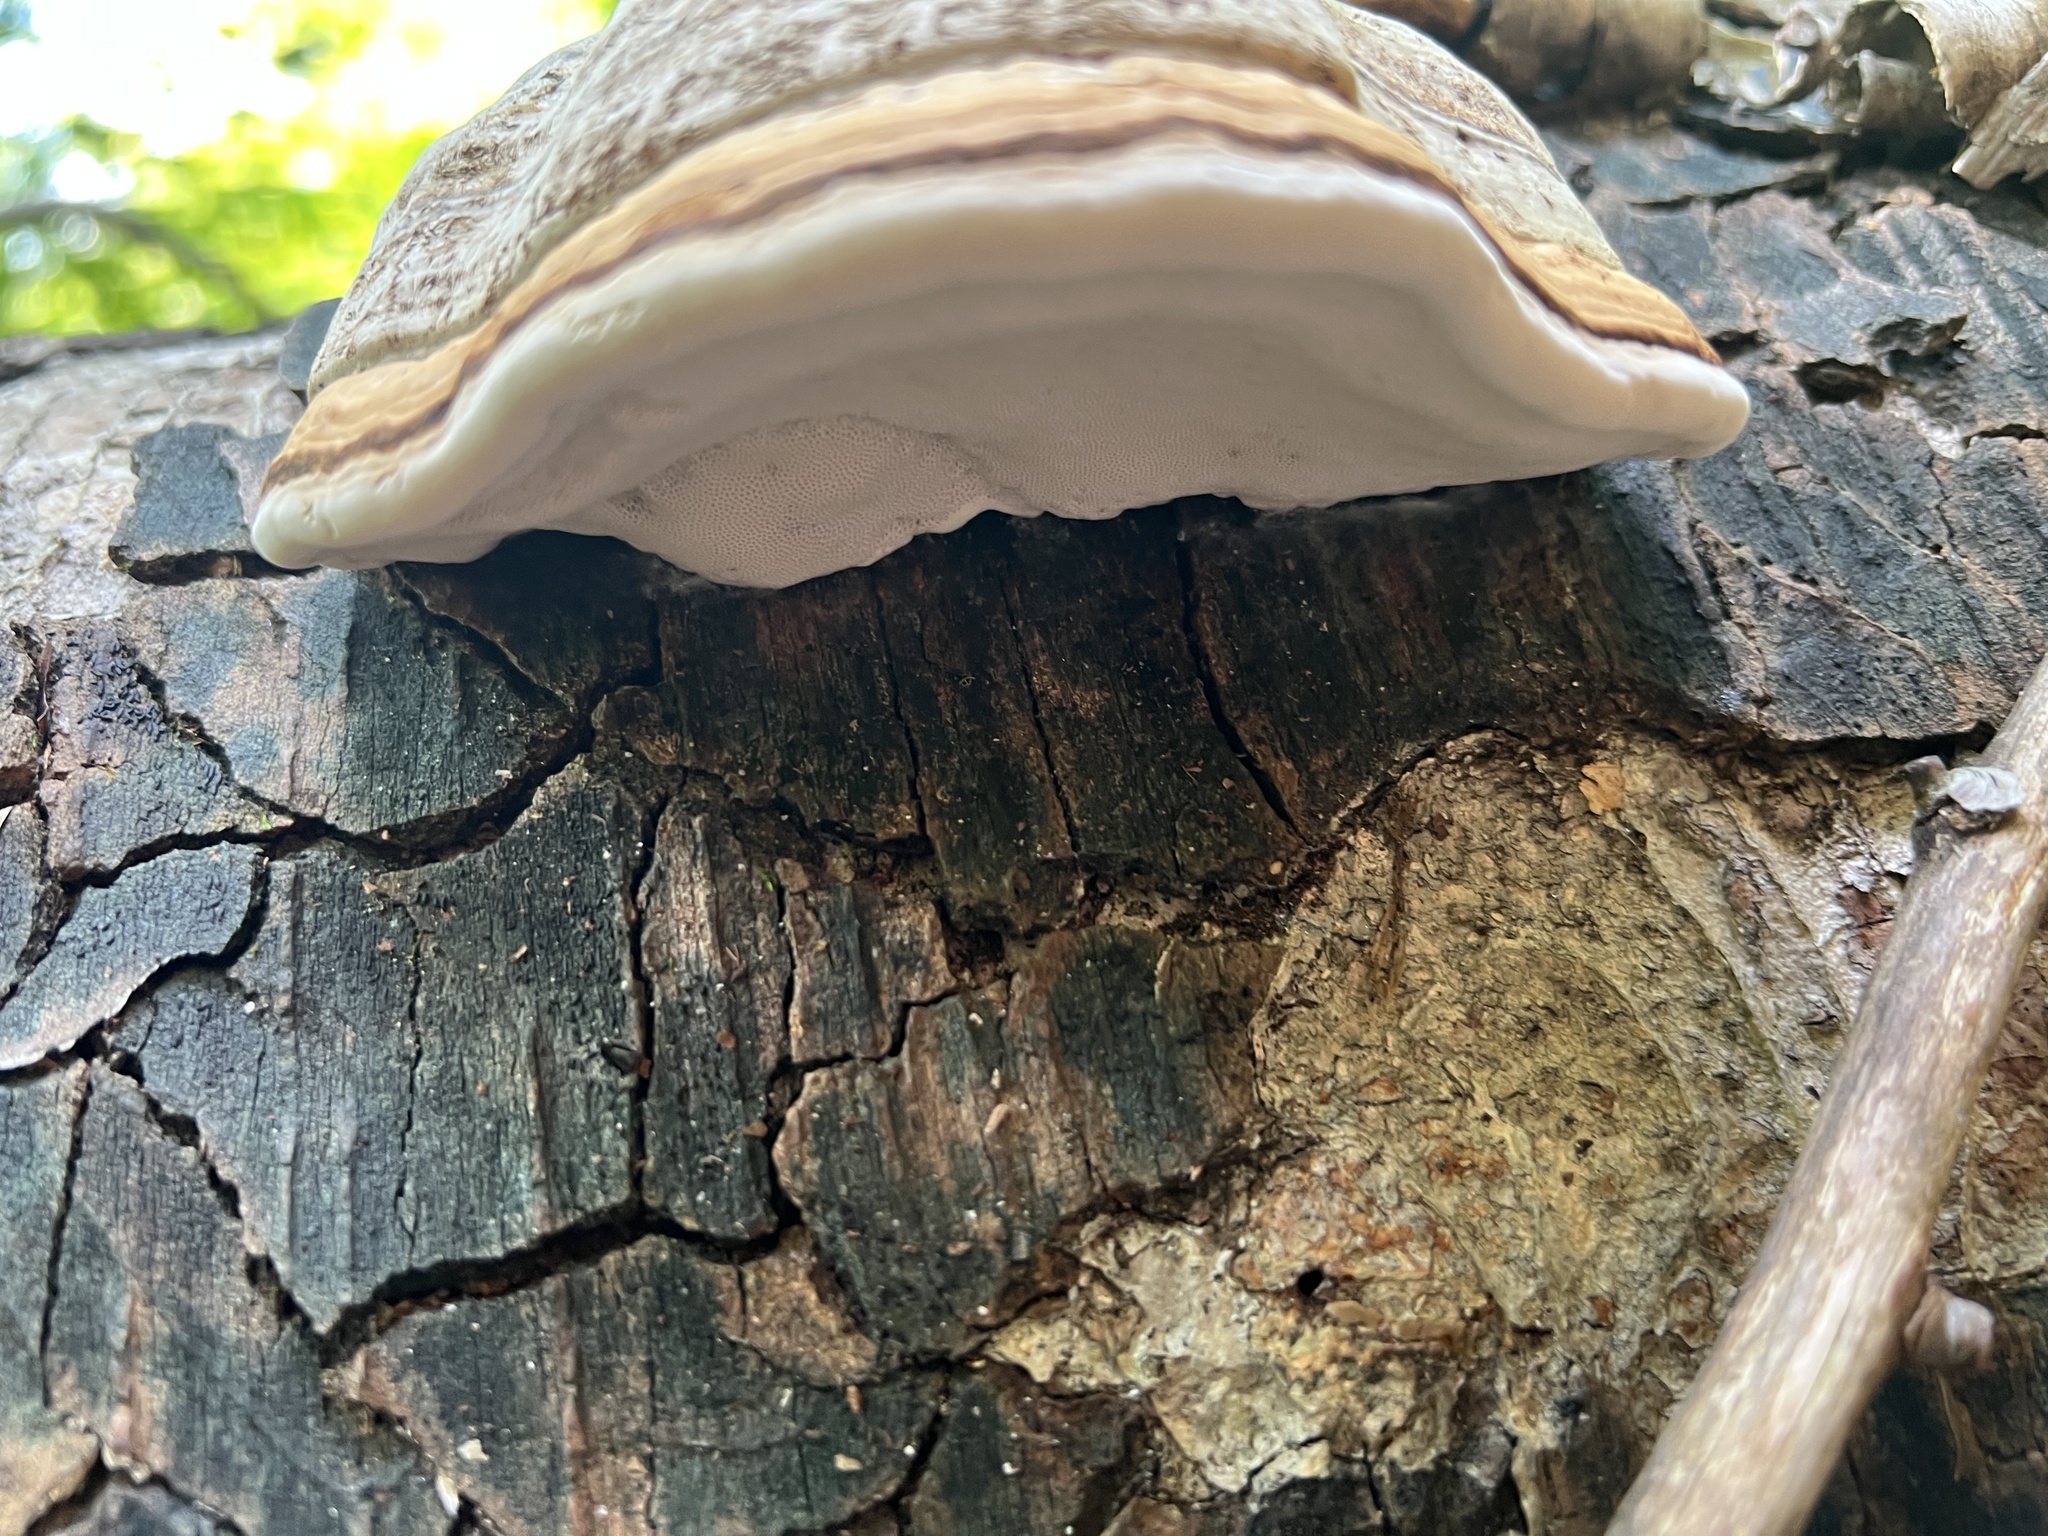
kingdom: Fungi
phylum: Basidiomycota
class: Agaricomycetes
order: Polyporales
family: Polyporaceae
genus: Fomes
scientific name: Fomes fomentarius
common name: Hoof fungus
